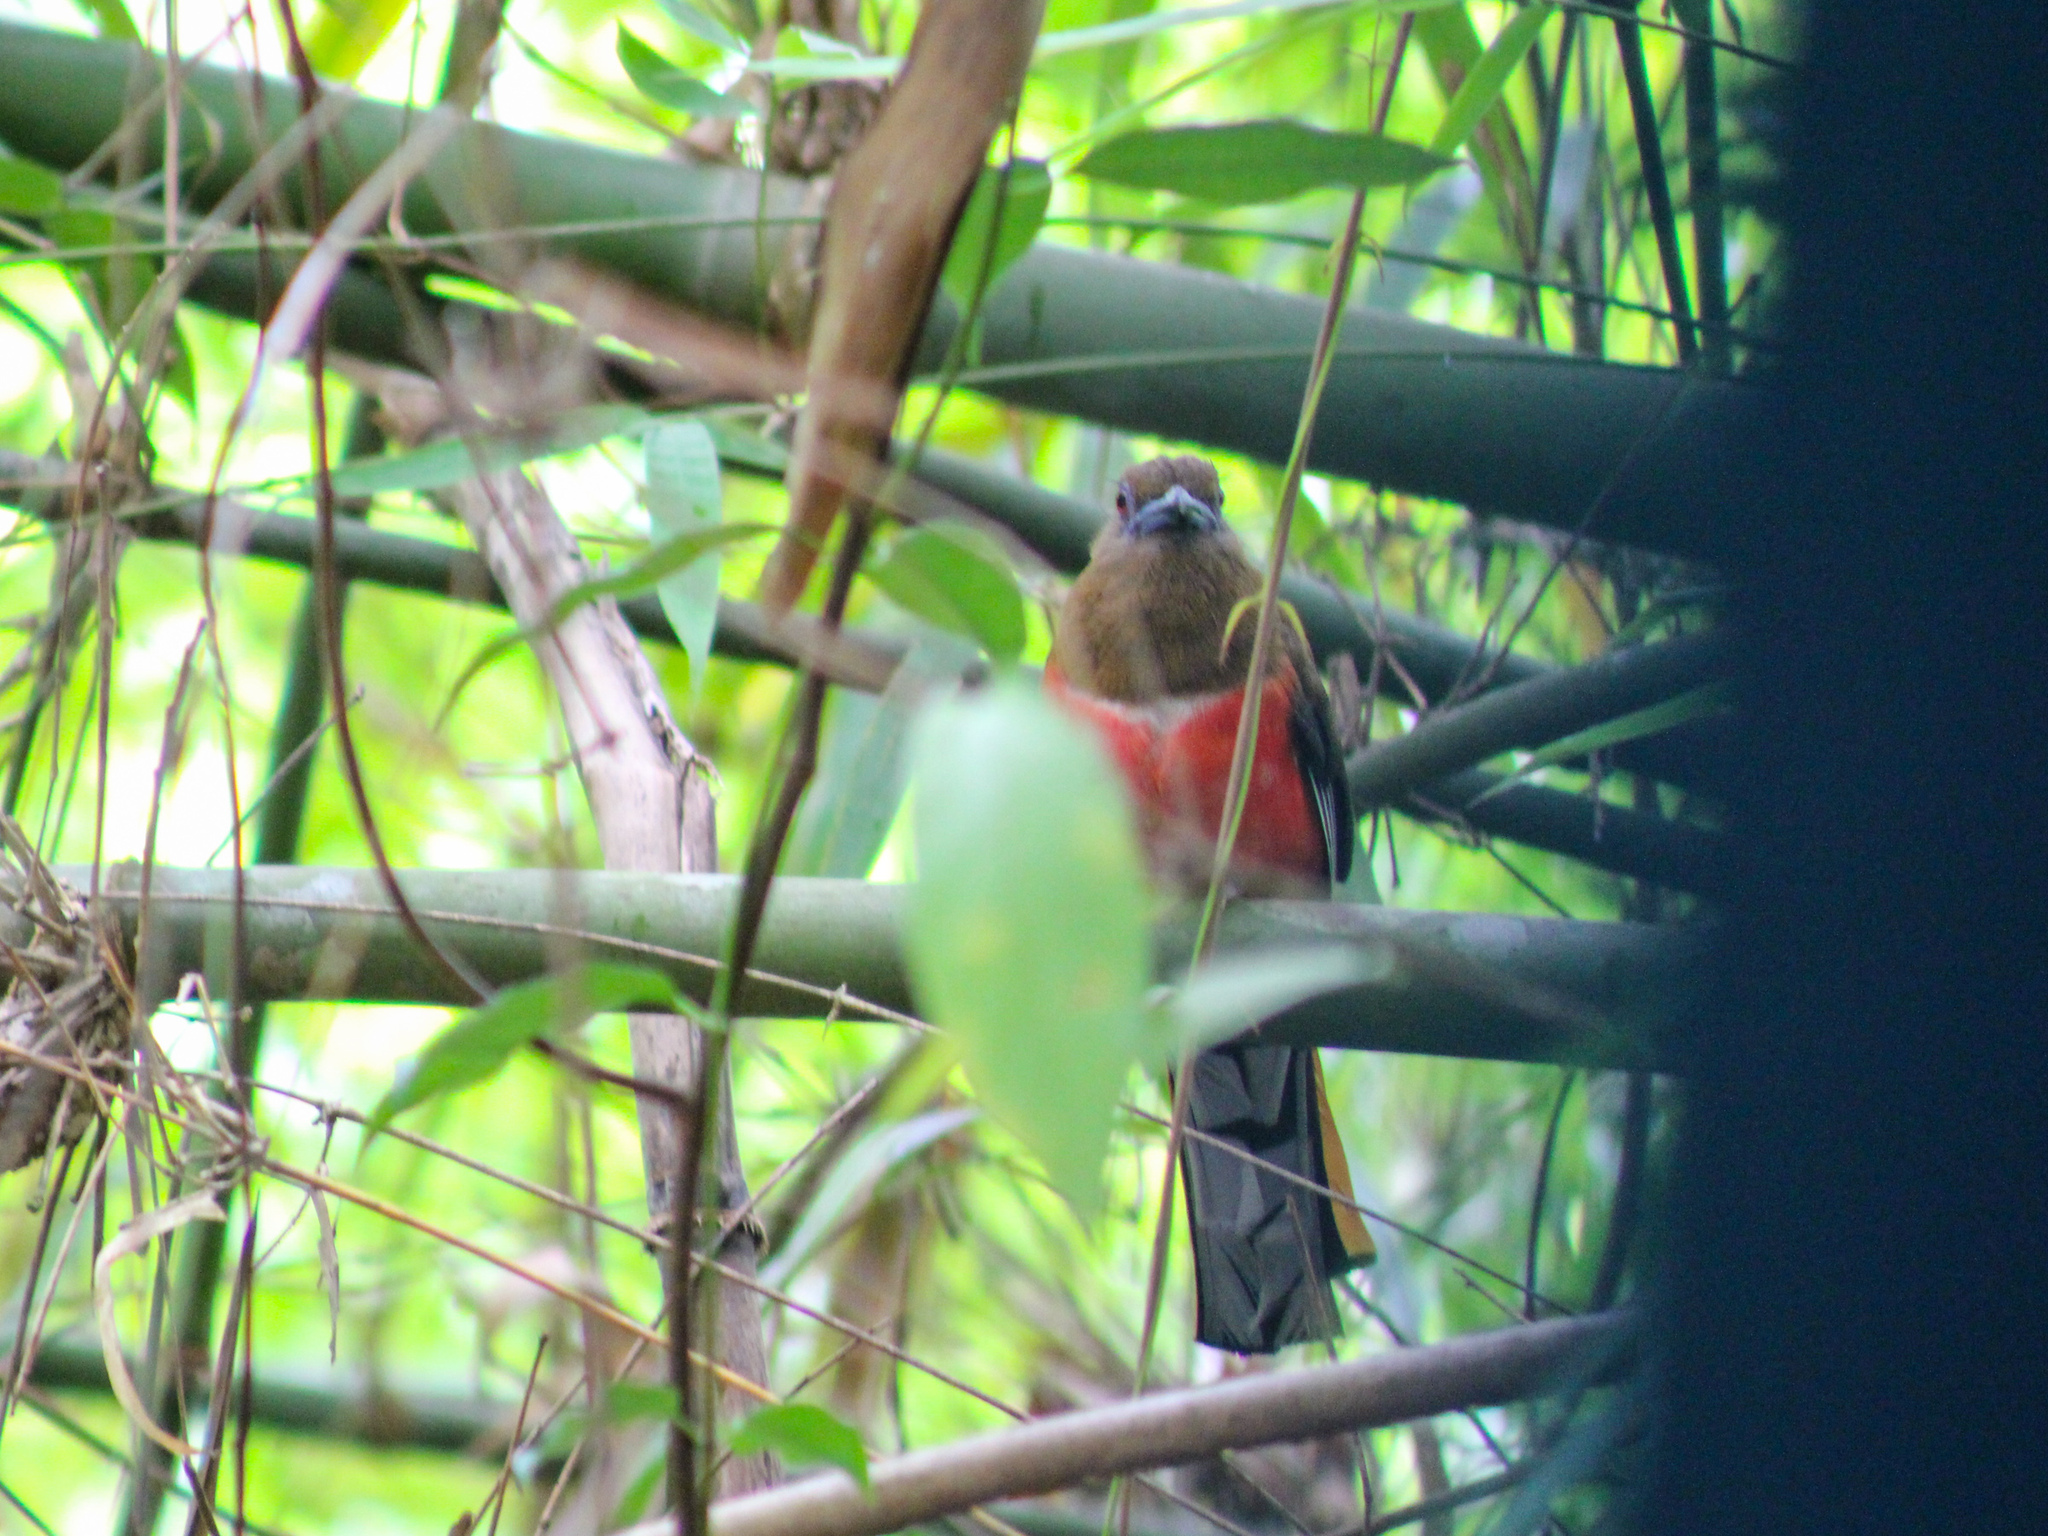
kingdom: Animalia
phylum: Chordata
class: Aves
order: Trogoniformes
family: Trogonidae
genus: Harpactes
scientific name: Harpactes erythrocephalus
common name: Red-headed trogon
